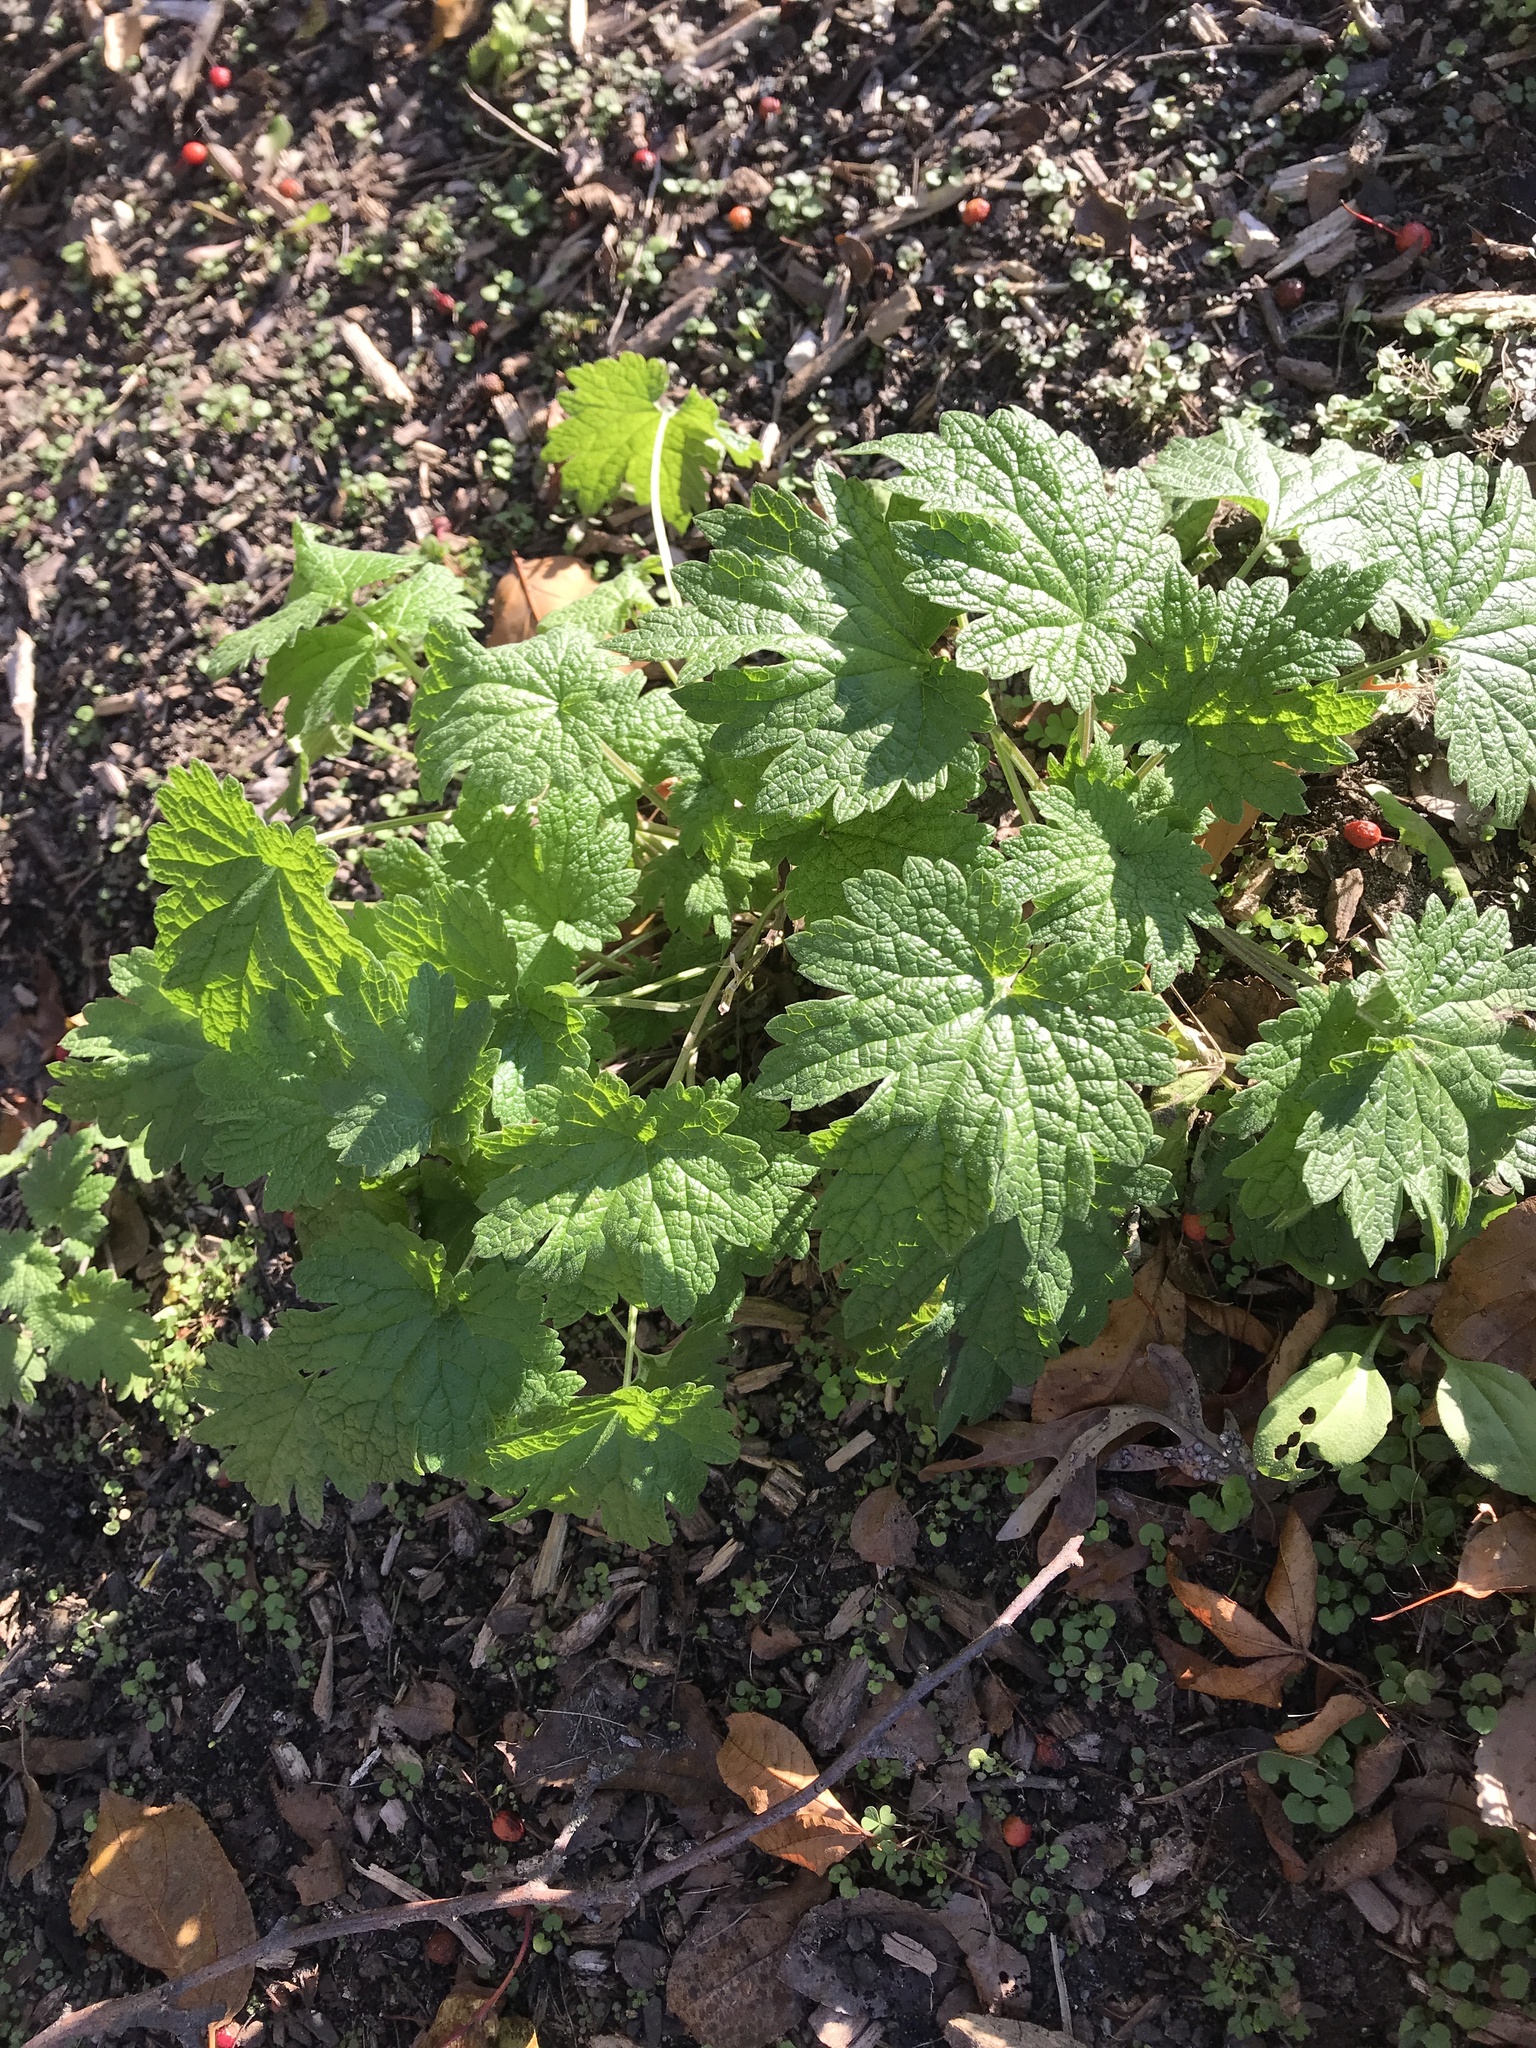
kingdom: Plantae
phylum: Tracheophyta
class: Magnoliopsida
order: Lamiales
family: Lamiaceae
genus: Leonurus
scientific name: Leonurus cardiaca
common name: Motherwort
